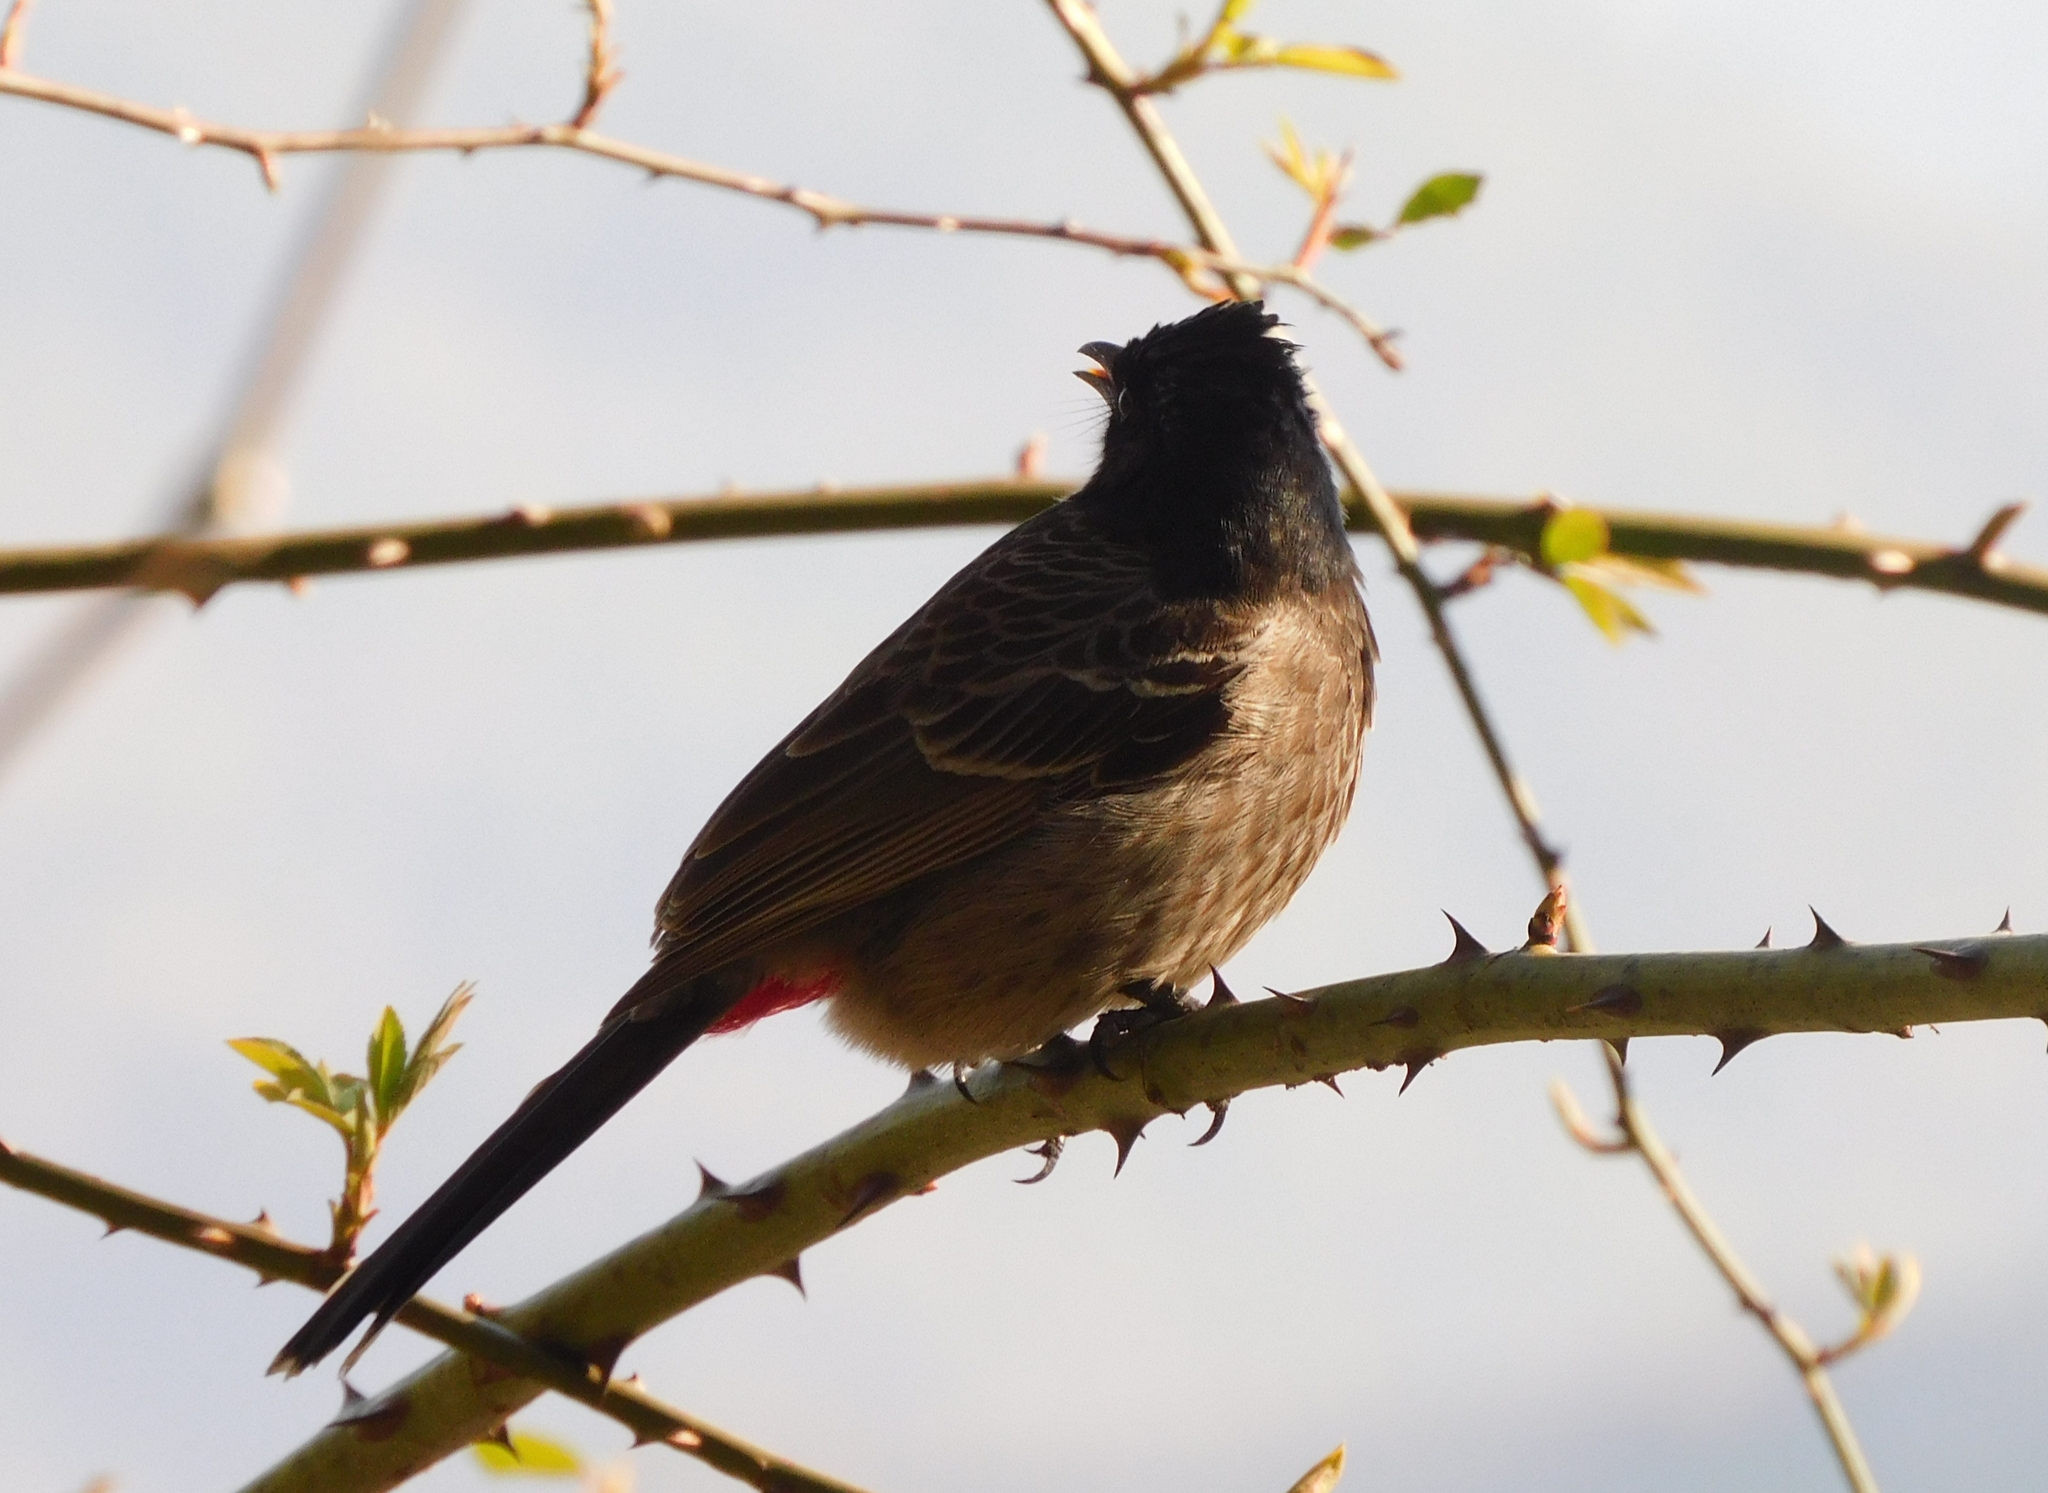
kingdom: Animalia
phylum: Chordata
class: Aves
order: Passeriformes
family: Pycnonotidae
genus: Pycnonotus
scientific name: Pycnonotus cafer
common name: Red-vented bulbul
